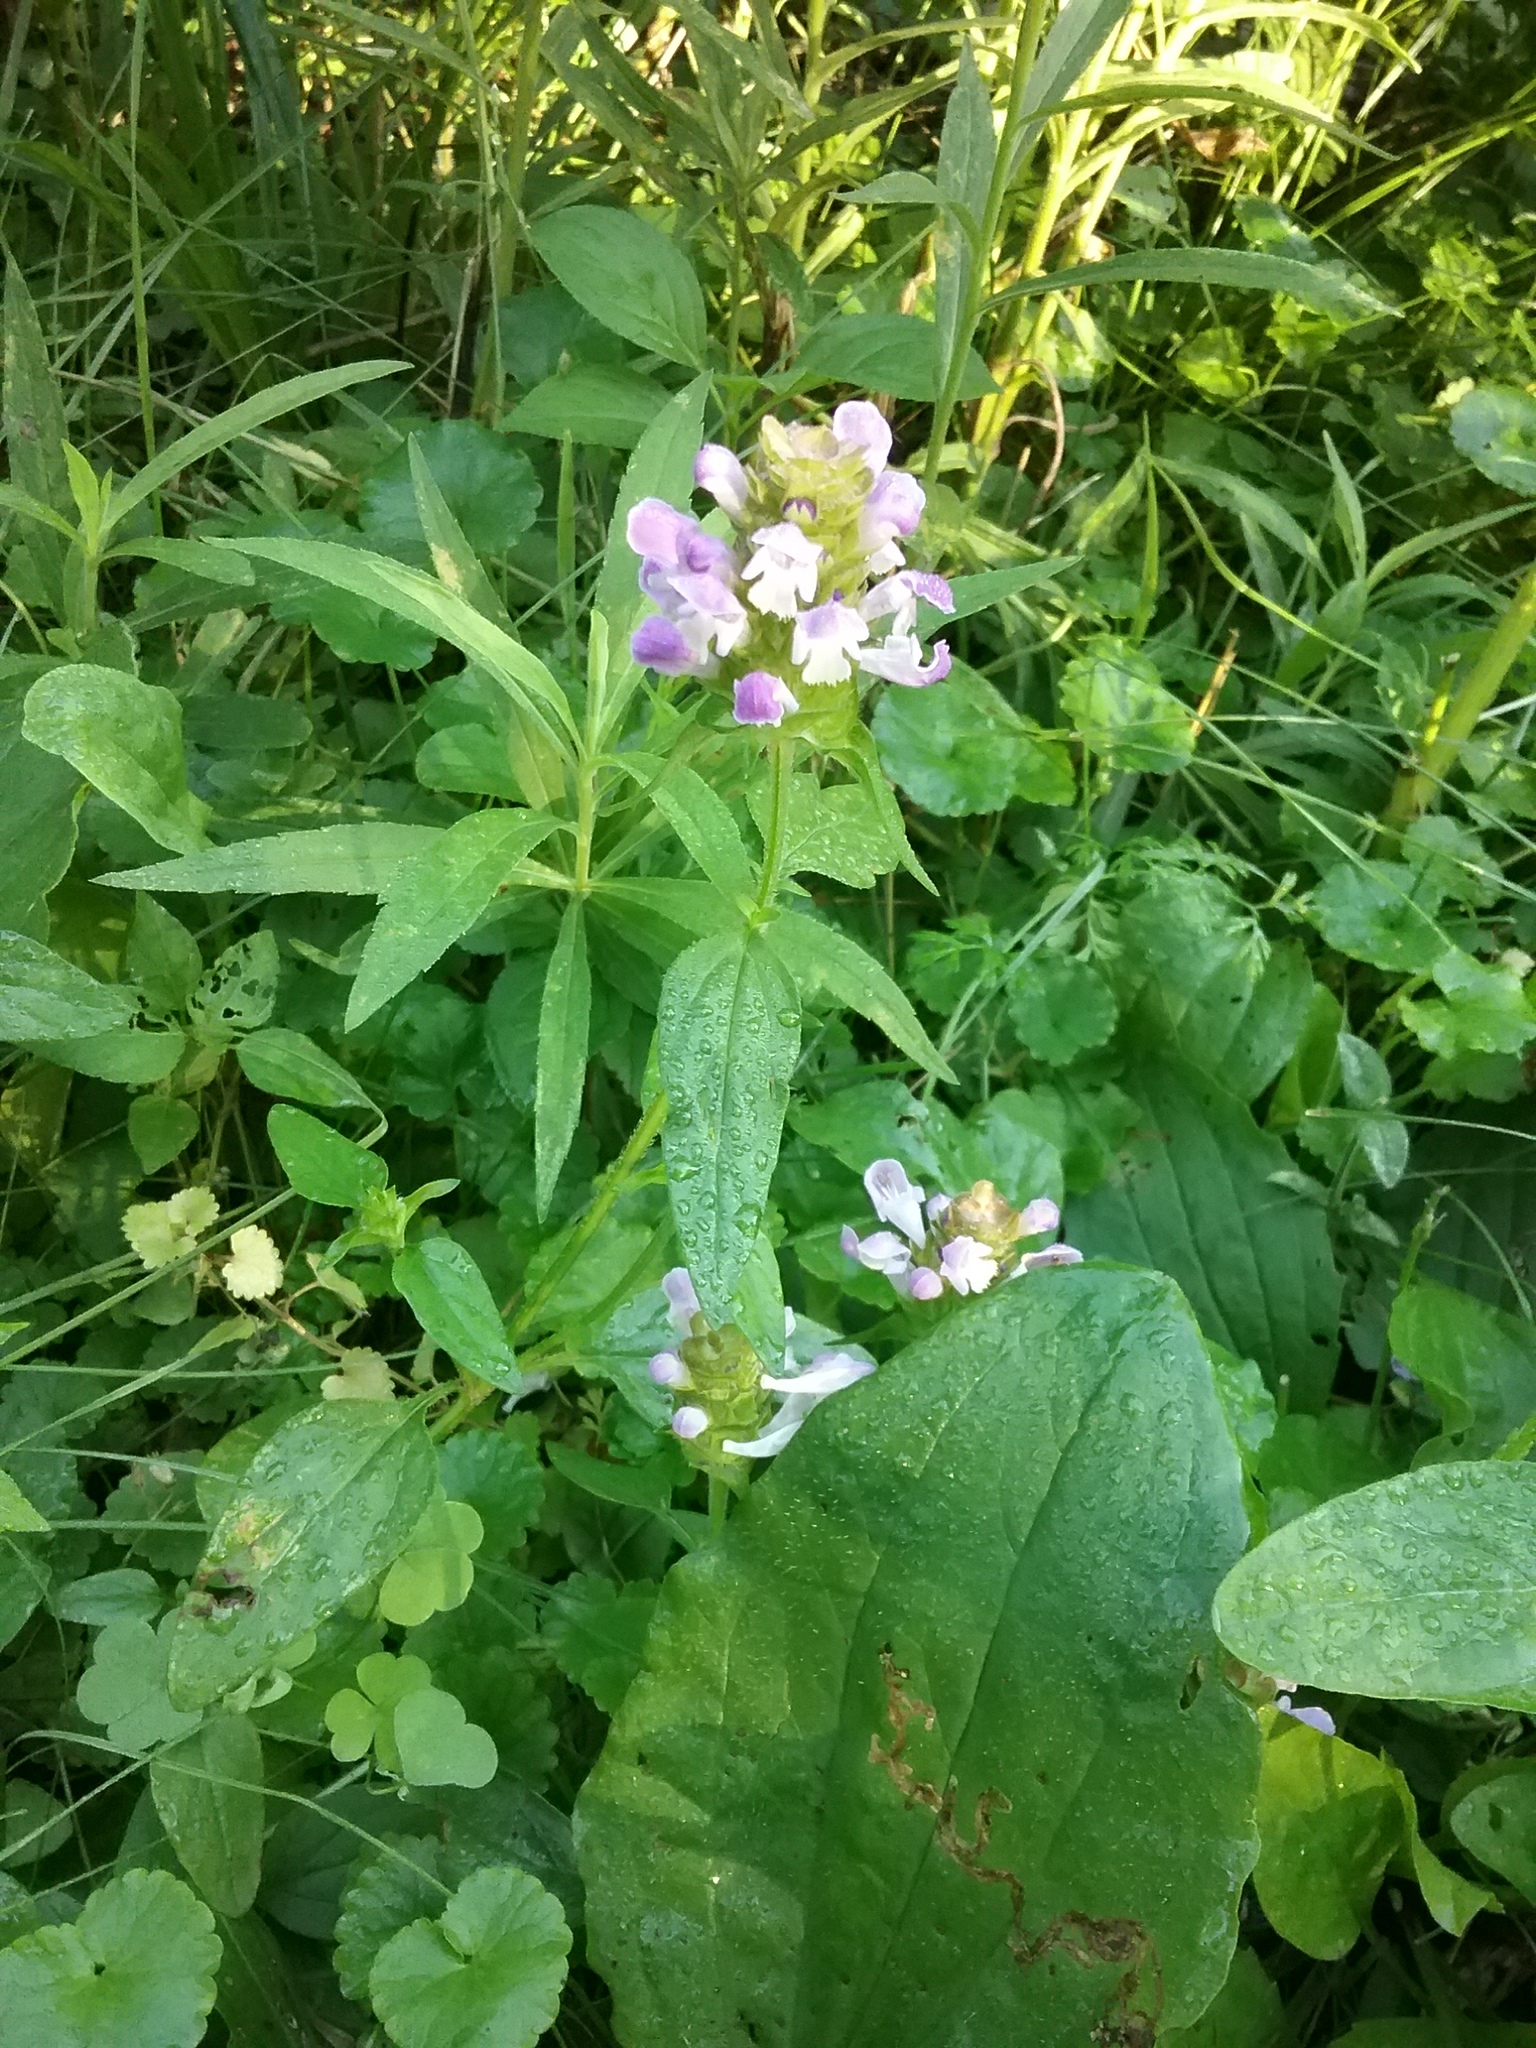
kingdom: Plantae
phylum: Tracheophyta
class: Magnoliopsida
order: Lamiales
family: Lamiaceae
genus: Prunella
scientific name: Prunella vulgaris
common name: Heal-all
